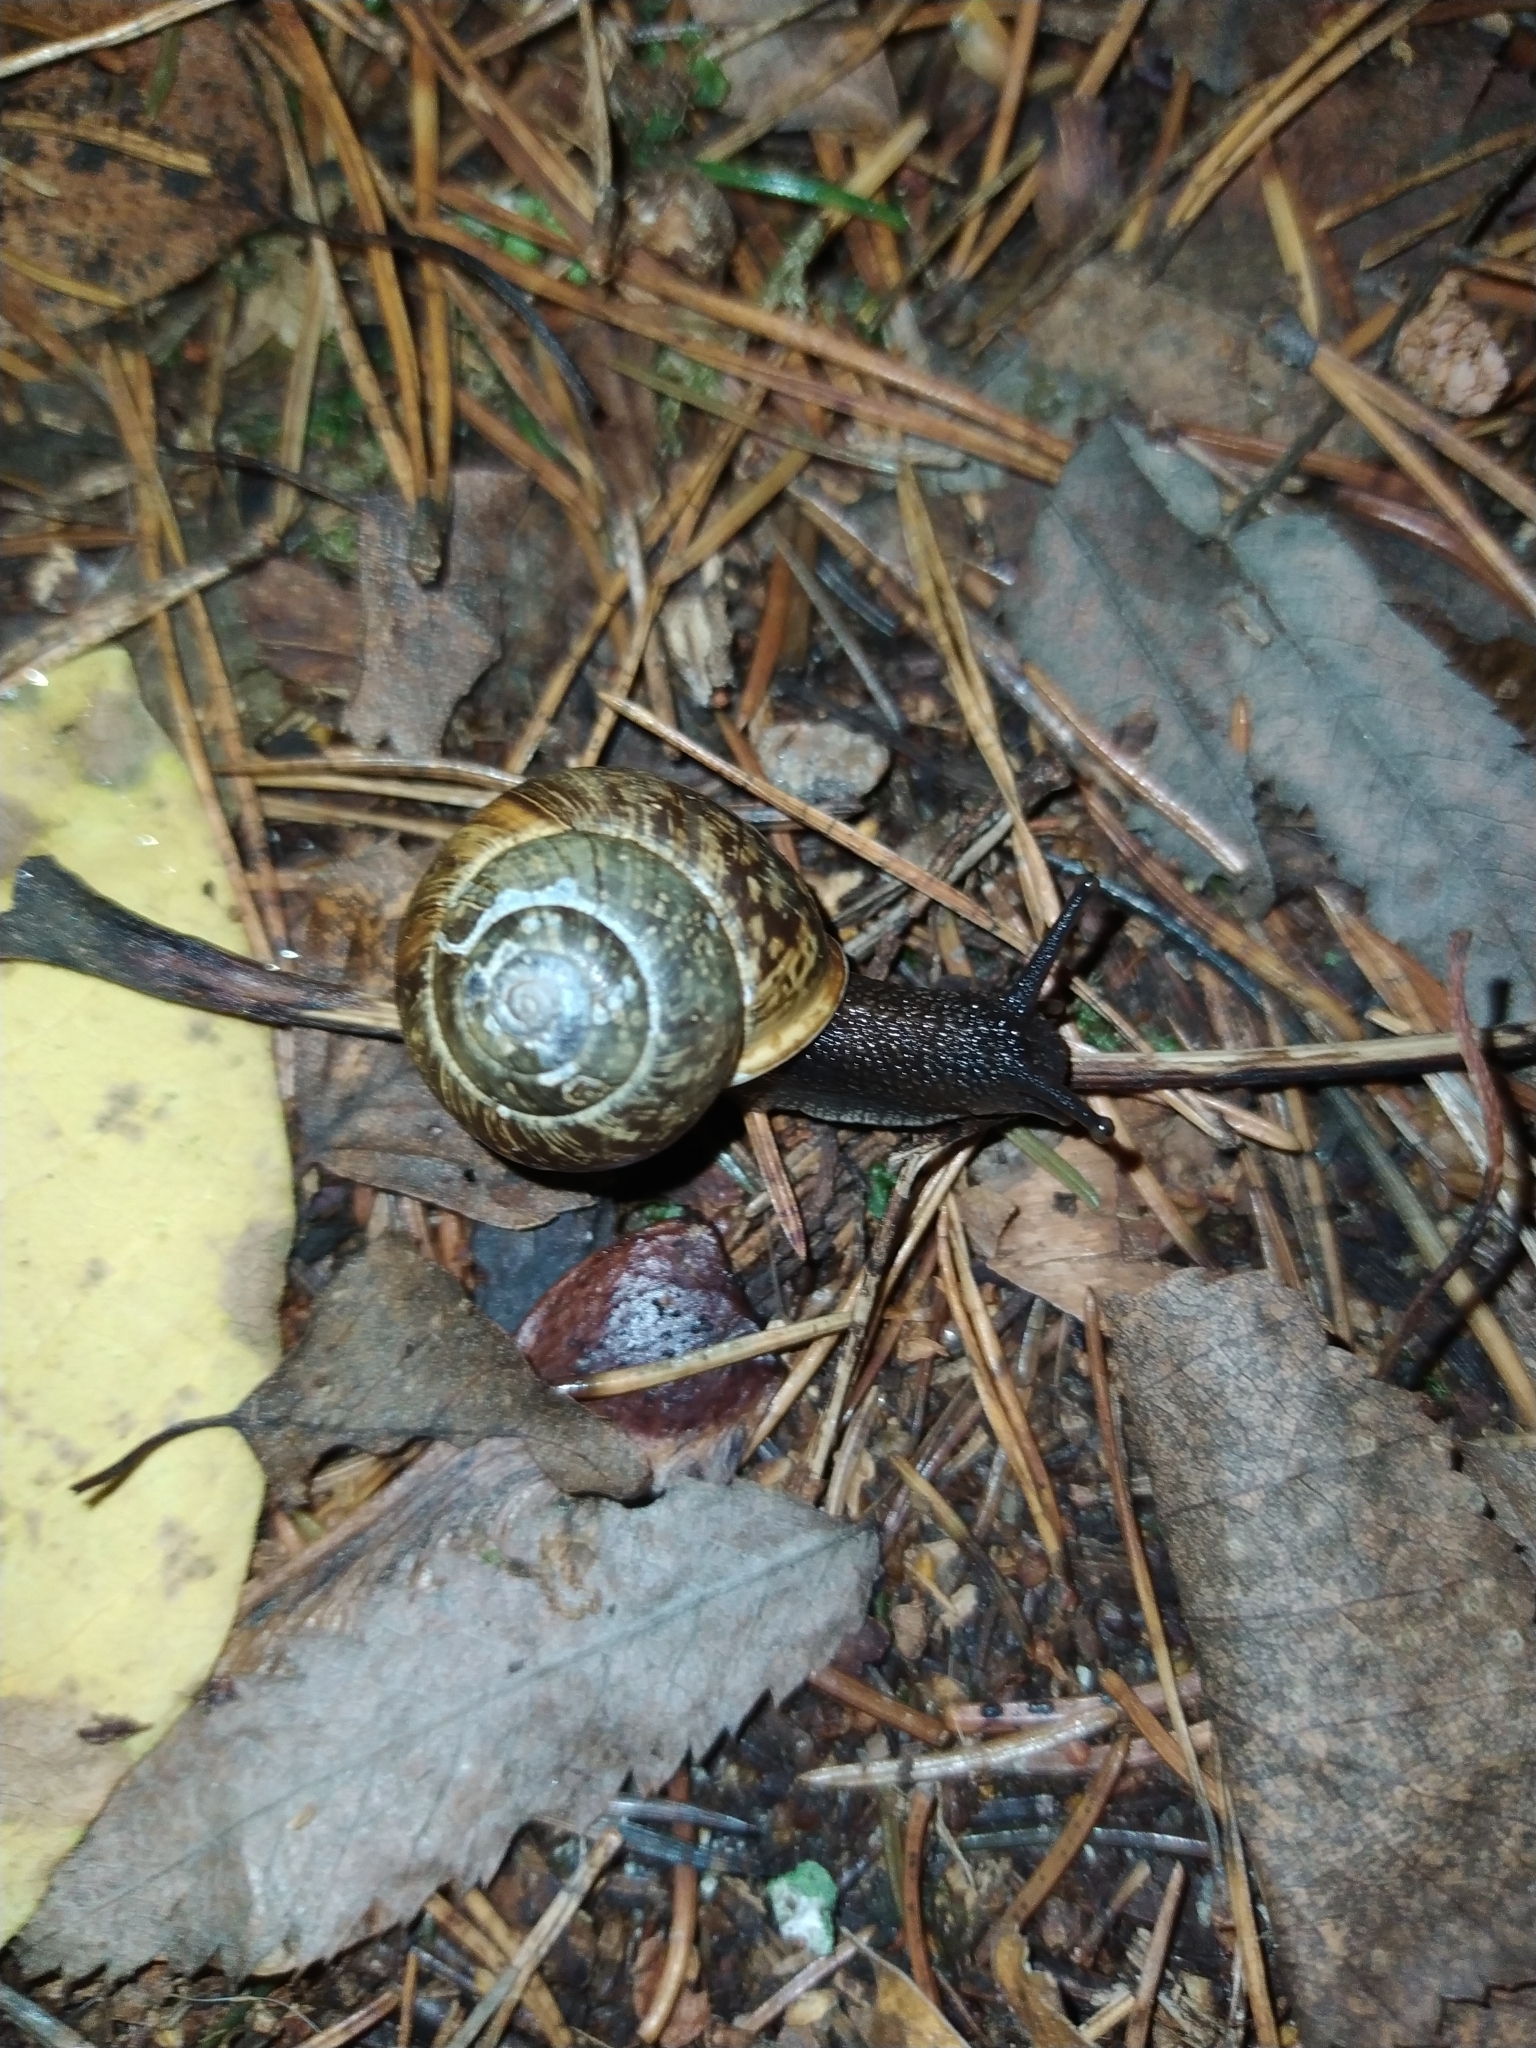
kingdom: Animalia
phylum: Mollusca
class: Gastropoda
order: Stylommatophora
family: Helicidae
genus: Arianta
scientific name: Arianta arbustorum
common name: Copse snail
